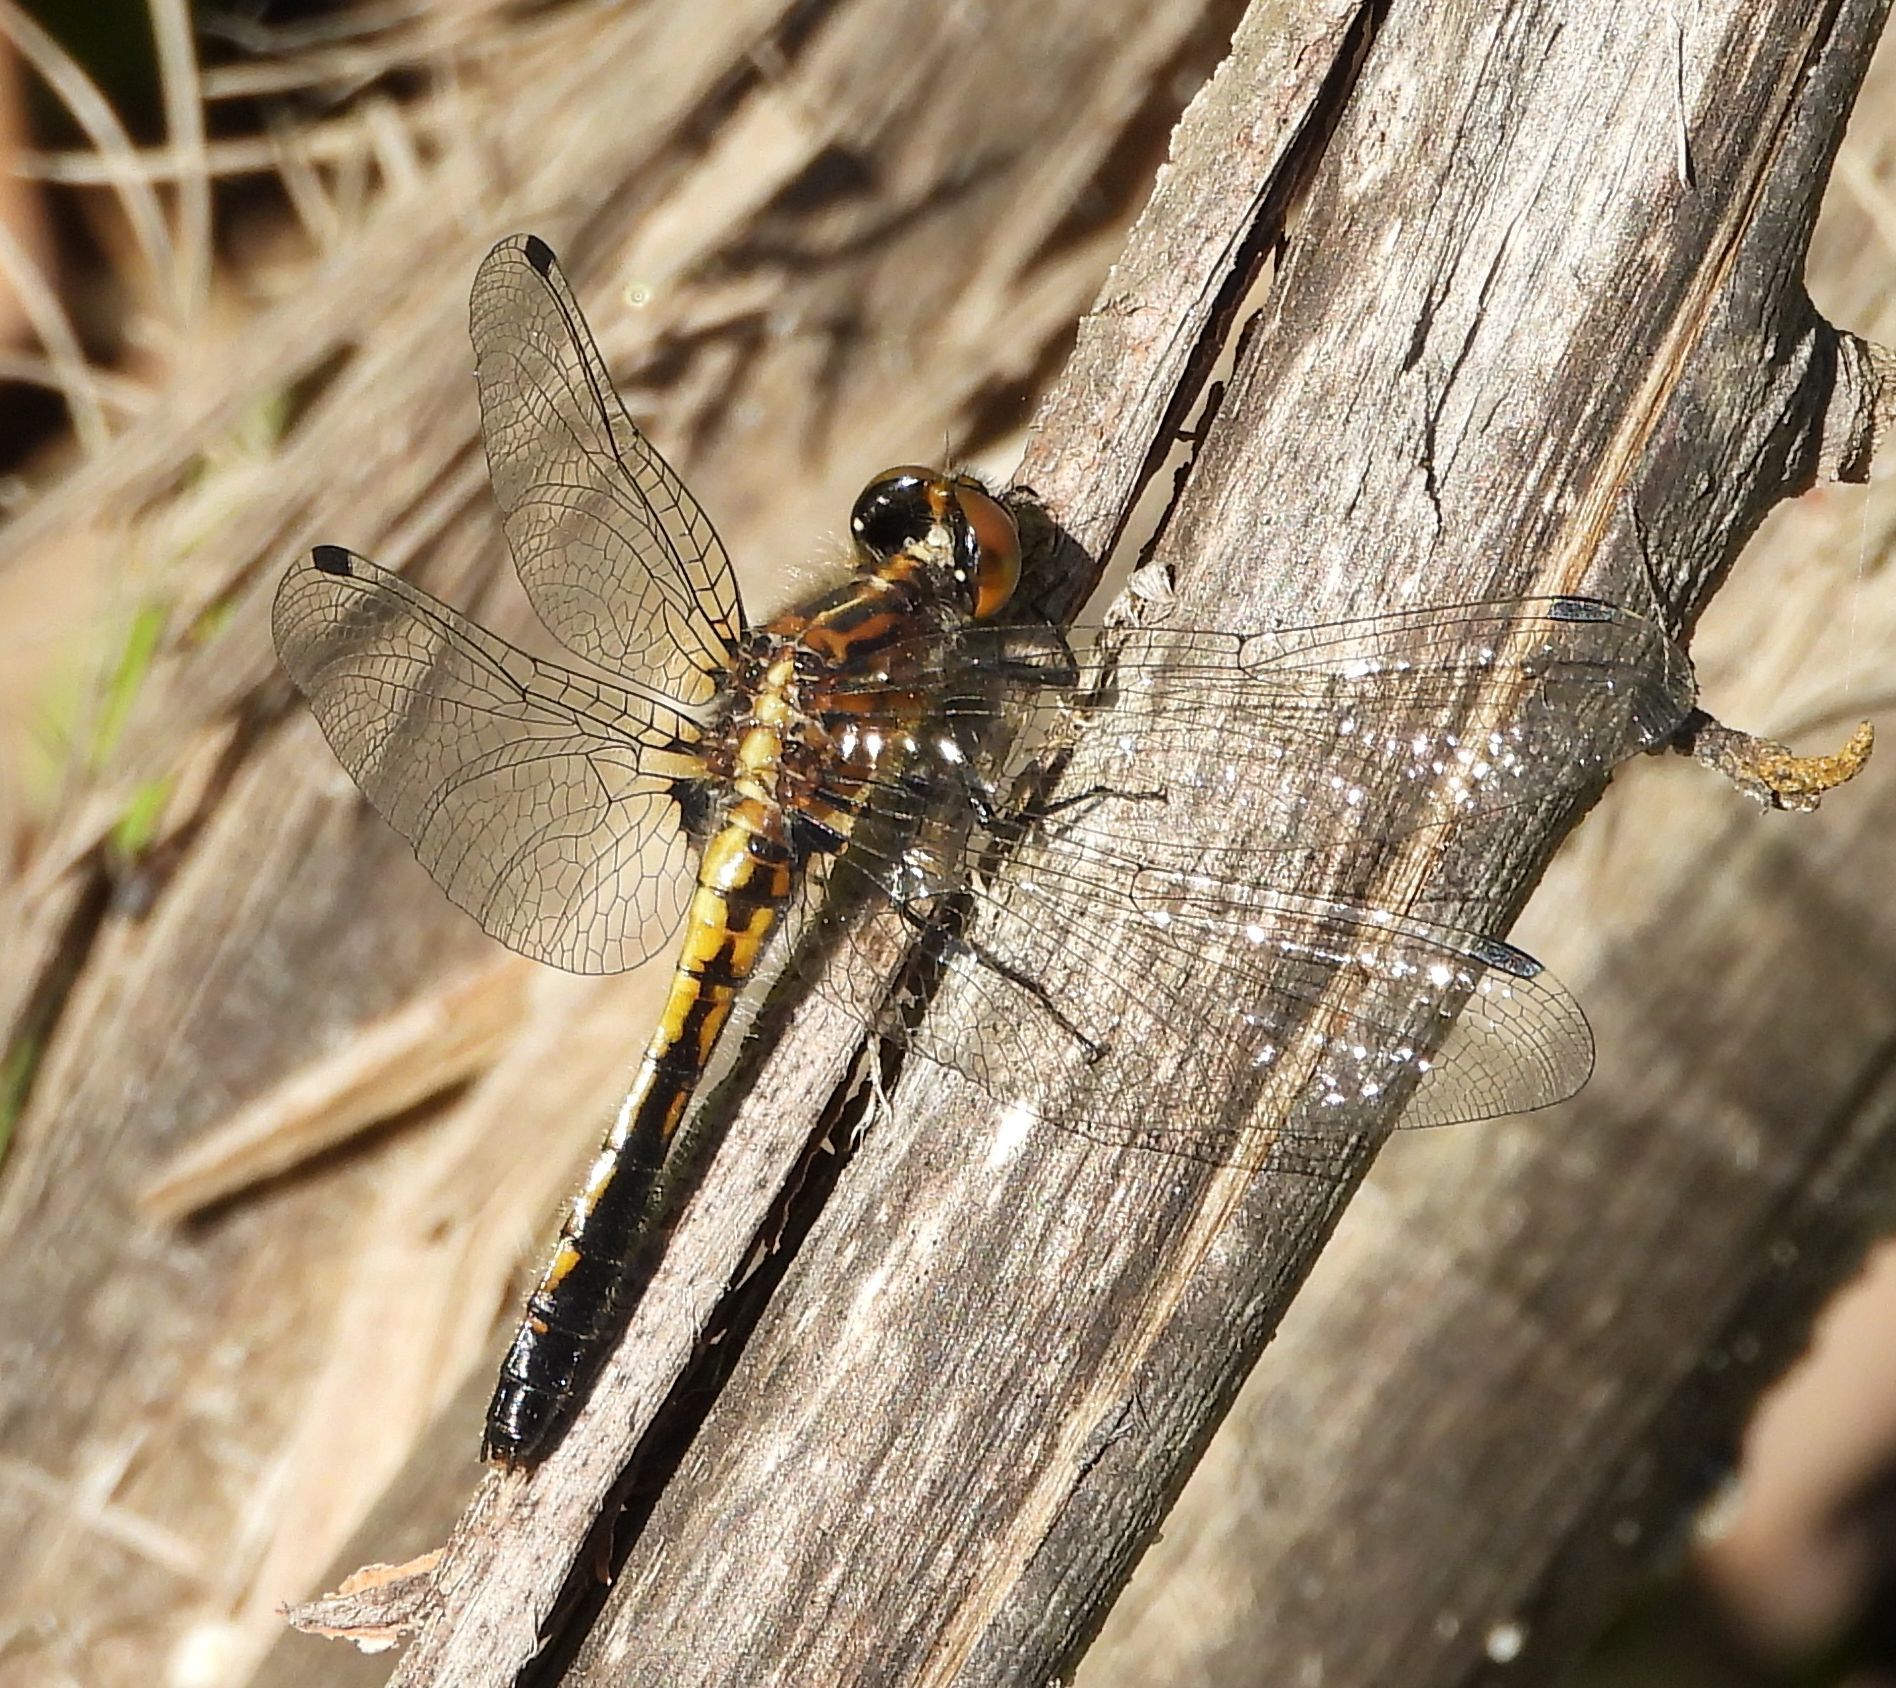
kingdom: Animalia
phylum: Arthropoda
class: Insecta
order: Odonata
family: Libellulidae
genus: Leucorrhinia
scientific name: Leucorrhinia intacta
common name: Dot-tailed whiteface
